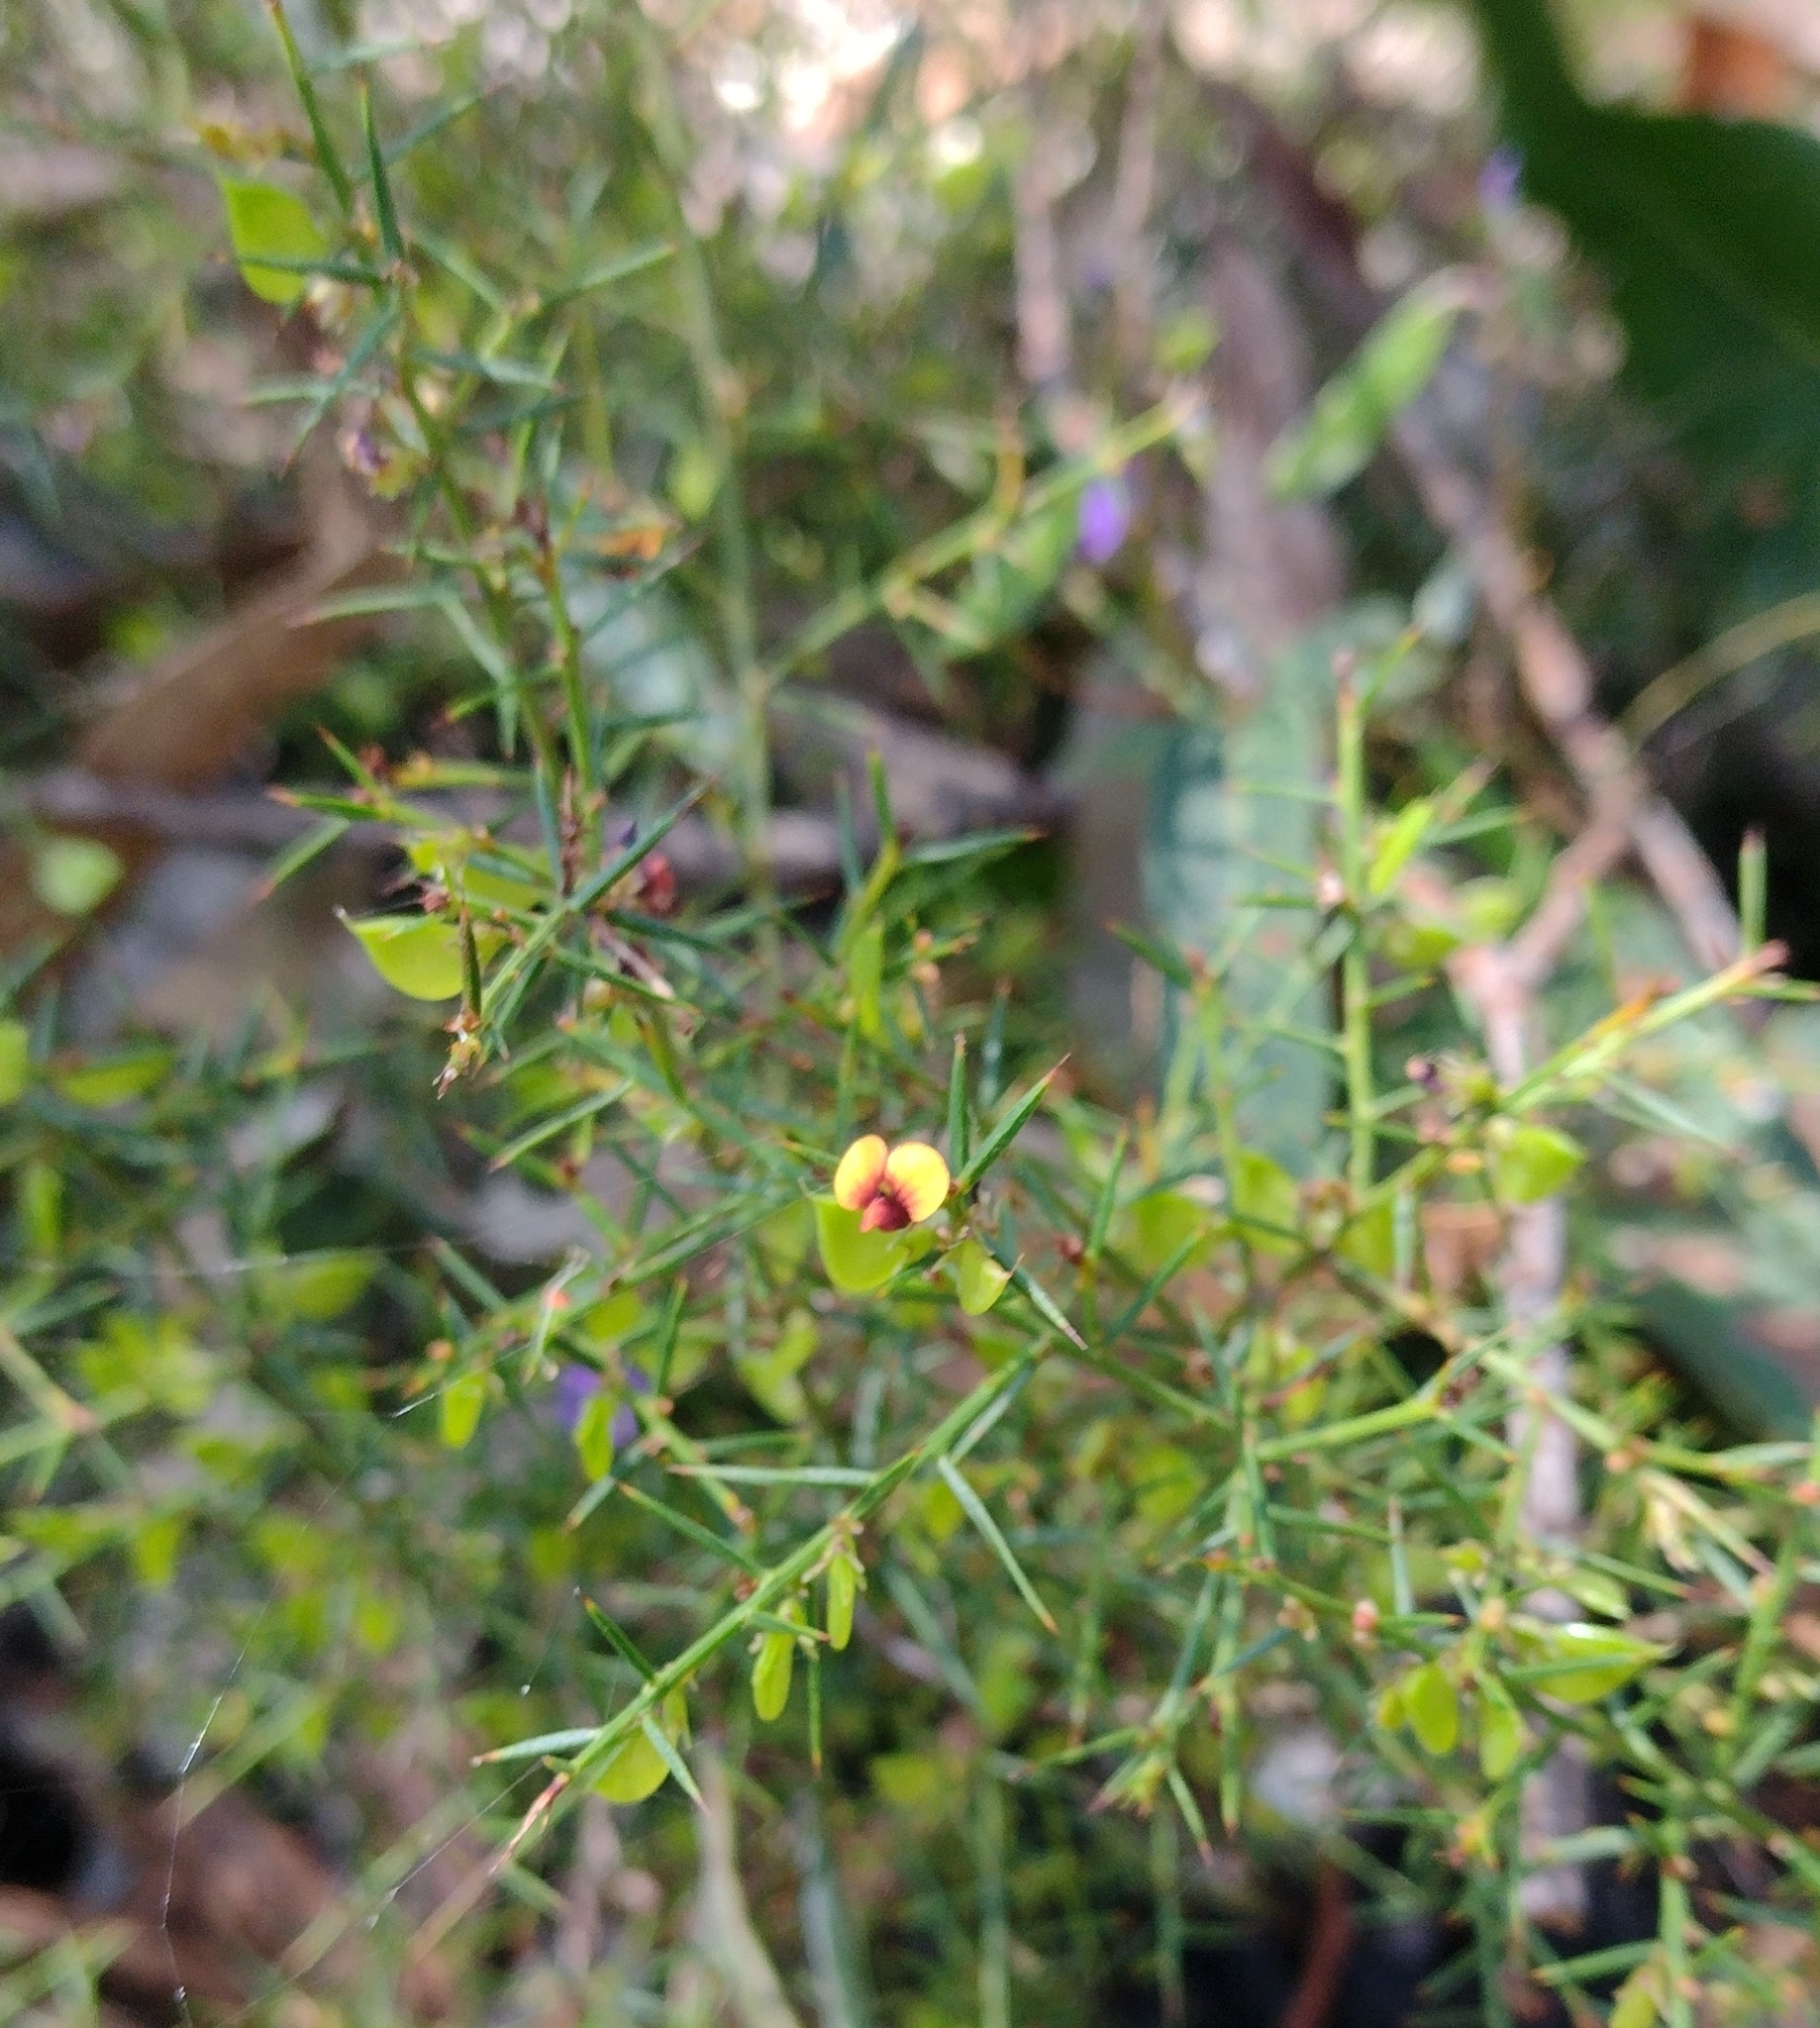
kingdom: Plantae
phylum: Tracheophyta
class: Magnoliopsida
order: Fabales
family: Fabaceae
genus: Daviesia
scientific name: Daviesia ulicifolia
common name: Gorse bitter-pea
